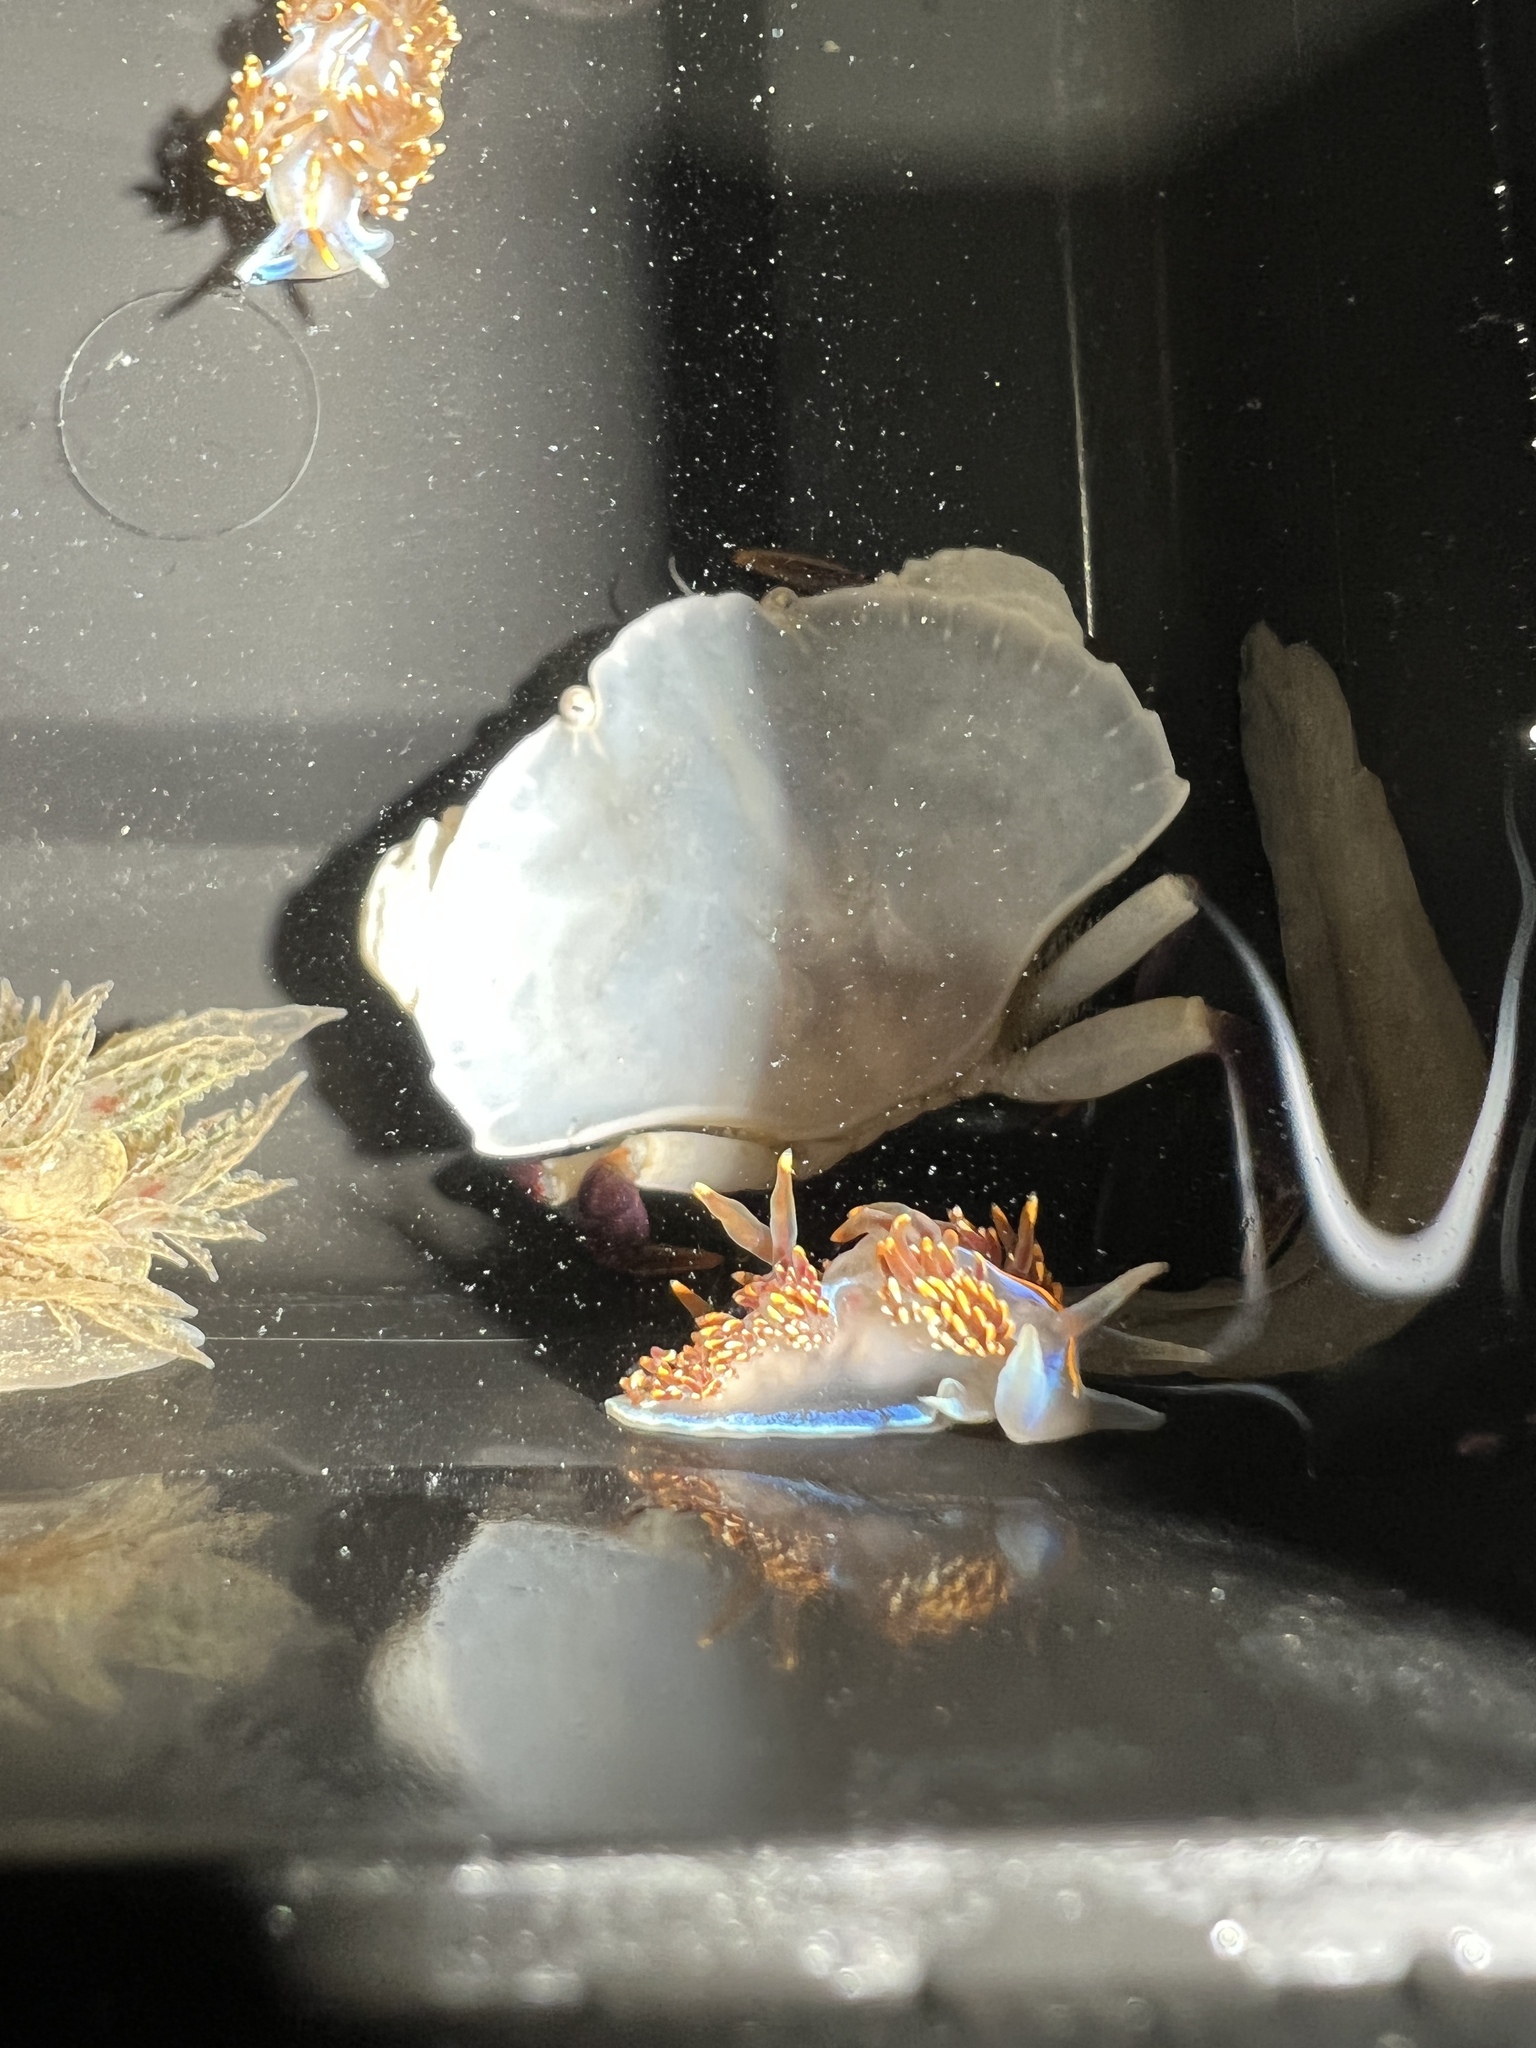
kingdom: Animalia
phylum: Mollusca
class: Gastropoda
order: Nudibranchia
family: Myrrhinidae
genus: Hermissenda
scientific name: Hermissenda opalescens
